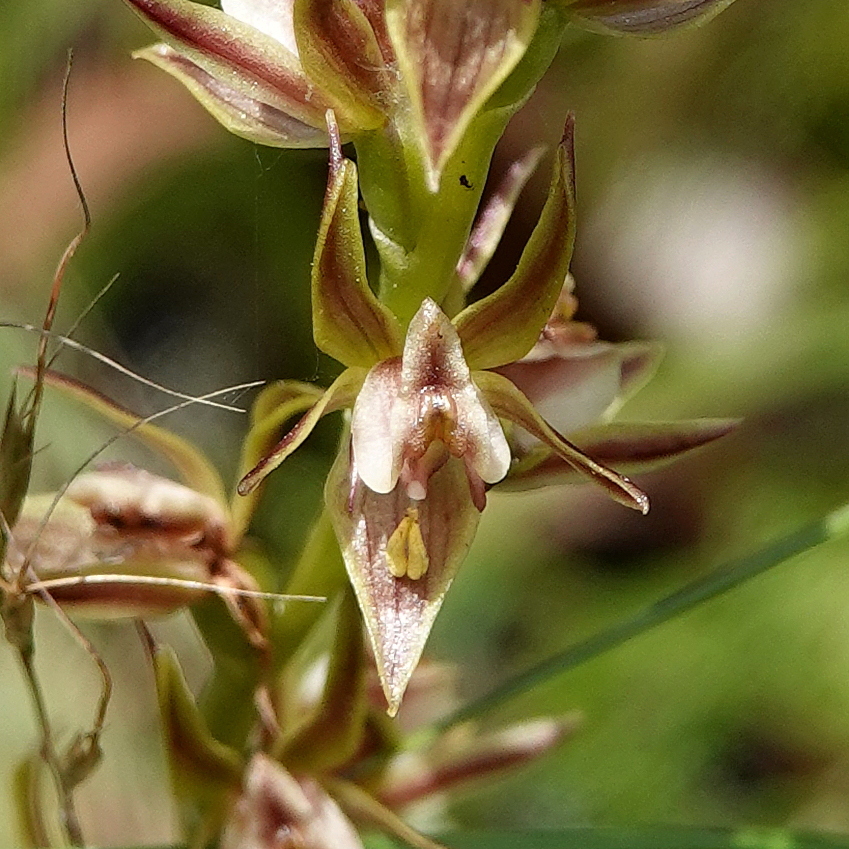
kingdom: Plantae
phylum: Tracheophyta
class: Liliopsida
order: Asparagales
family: Orchidaceae
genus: Prasophyllum
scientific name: Prasophyllum canaliculatum
